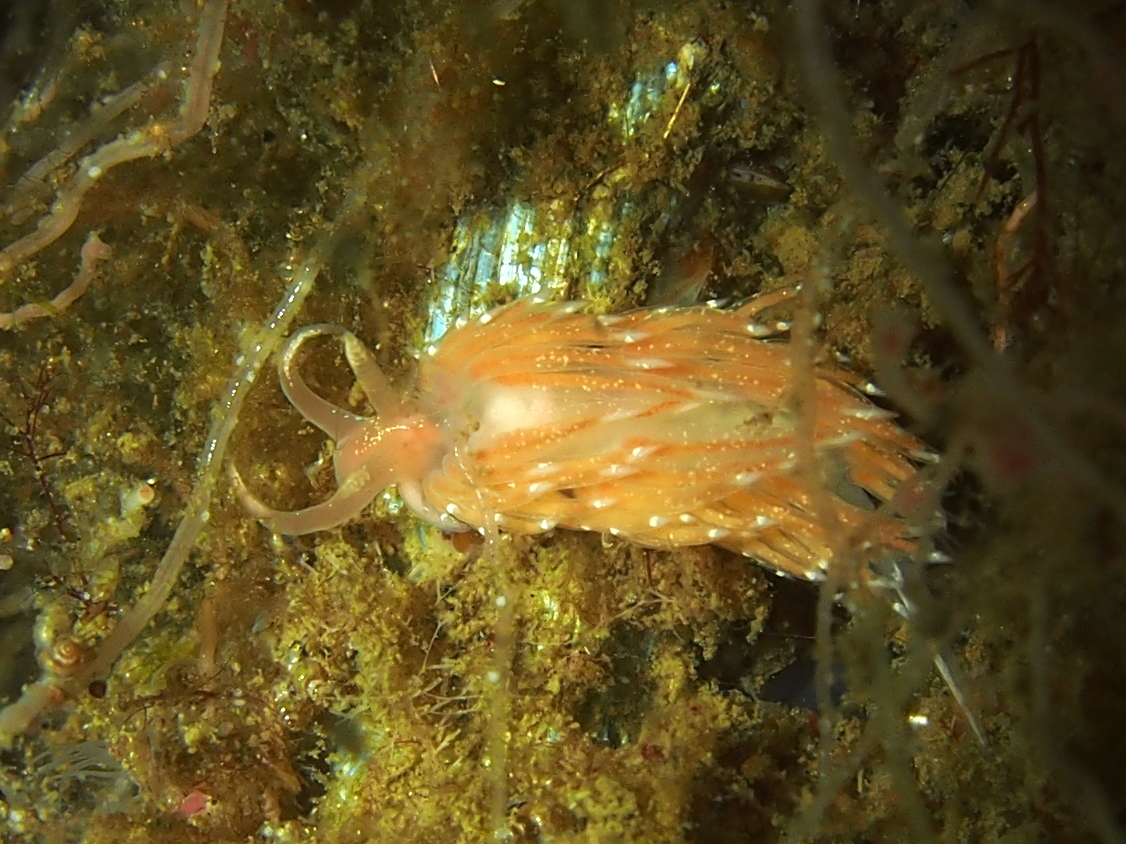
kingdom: Animalia
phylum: Mollusca
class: Gastropoda
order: Nudibranchia
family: Facelinidae
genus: Facelina
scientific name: Facelina bostoniensis
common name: Boston facelina
